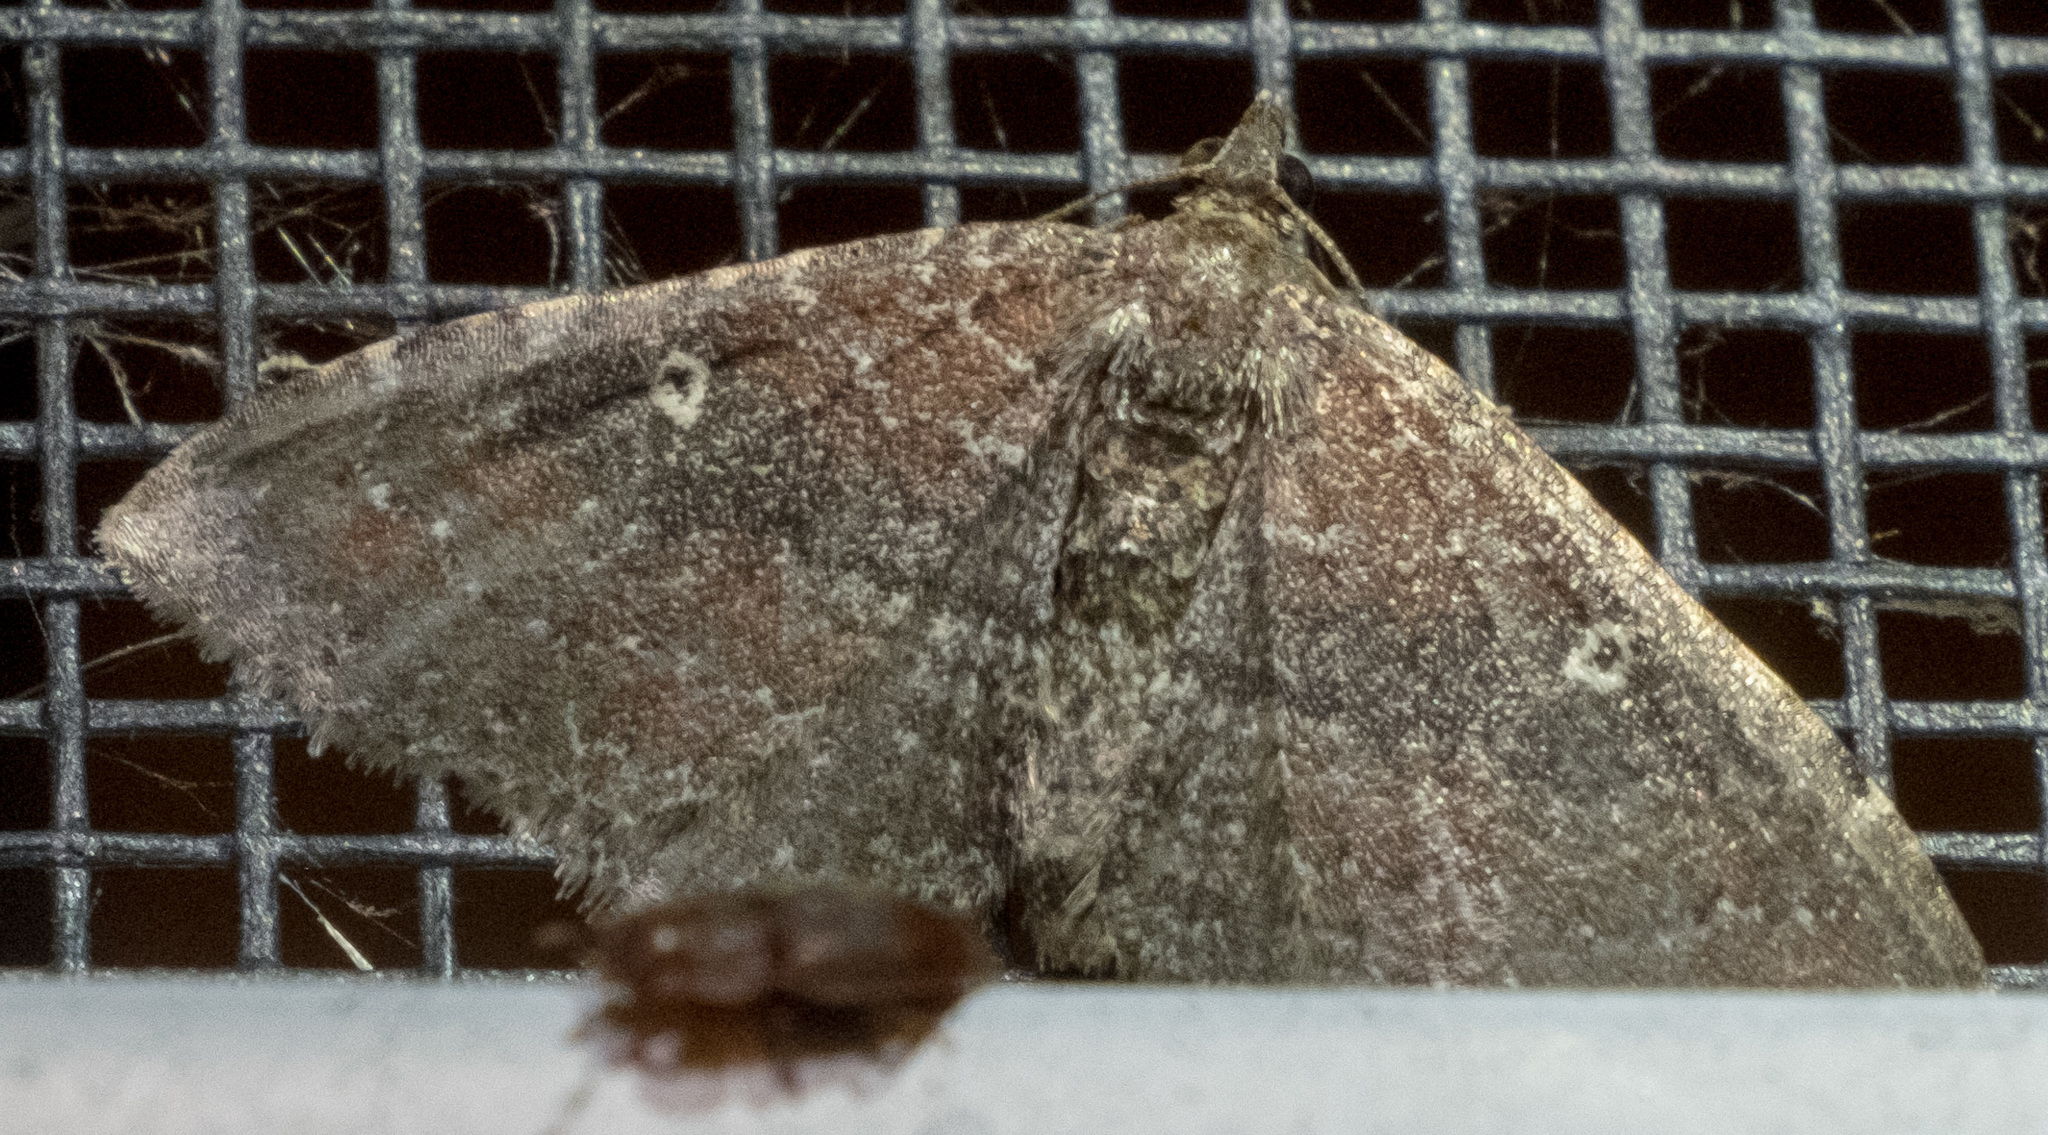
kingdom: Animalia
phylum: Arthropoda
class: Insecta
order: Lepidoptera
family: Geometridae
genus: Orthonama
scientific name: Orthonama obstipata
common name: The gem
